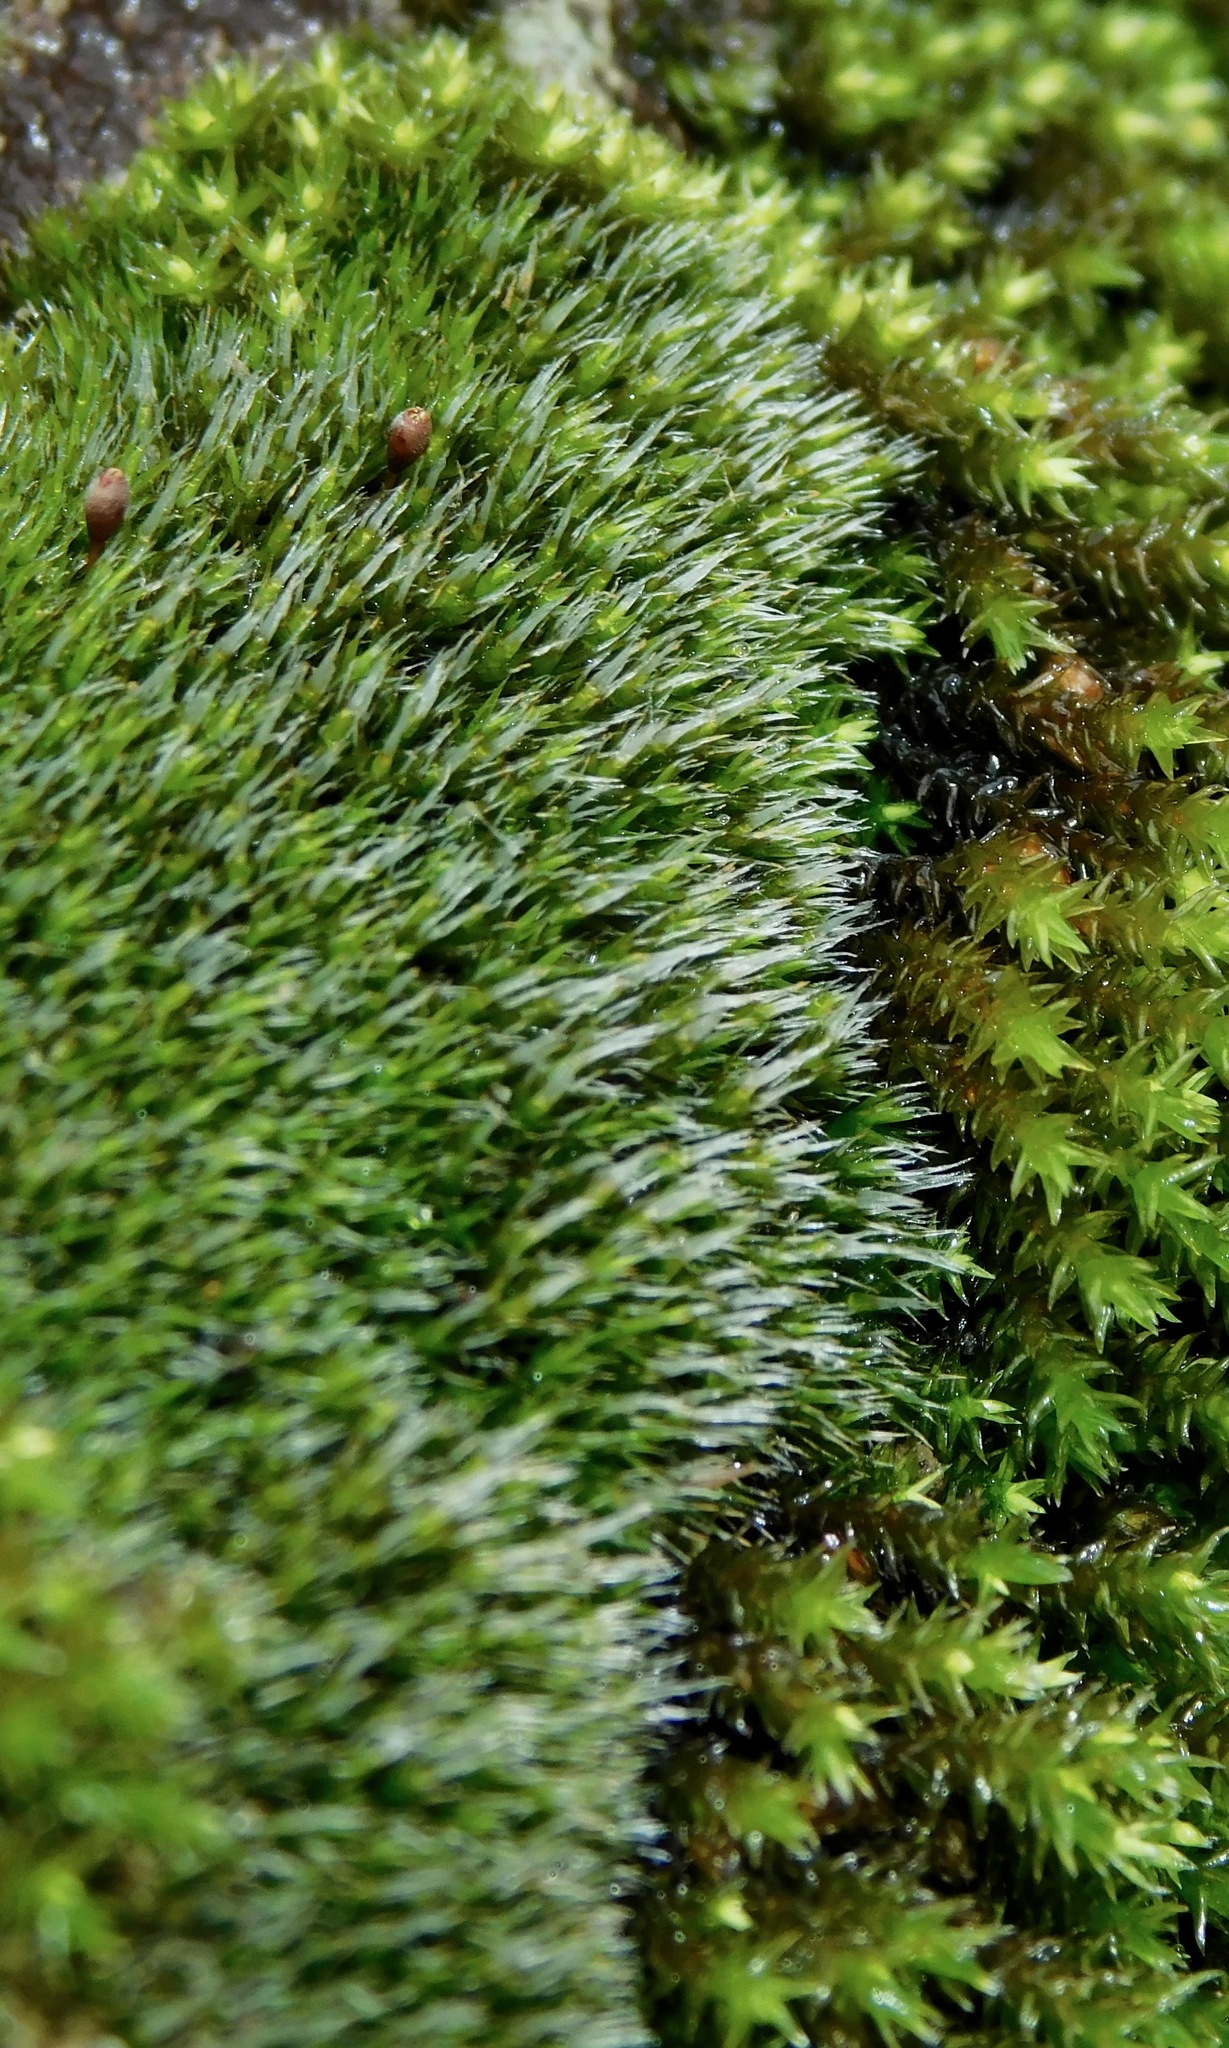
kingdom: Plantae
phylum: Bryophyta
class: Bryopsida
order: Grimmiales
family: Grimmiaceae
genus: Grimmia
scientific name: Grimmia laevigata
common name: Hoary grimmia
